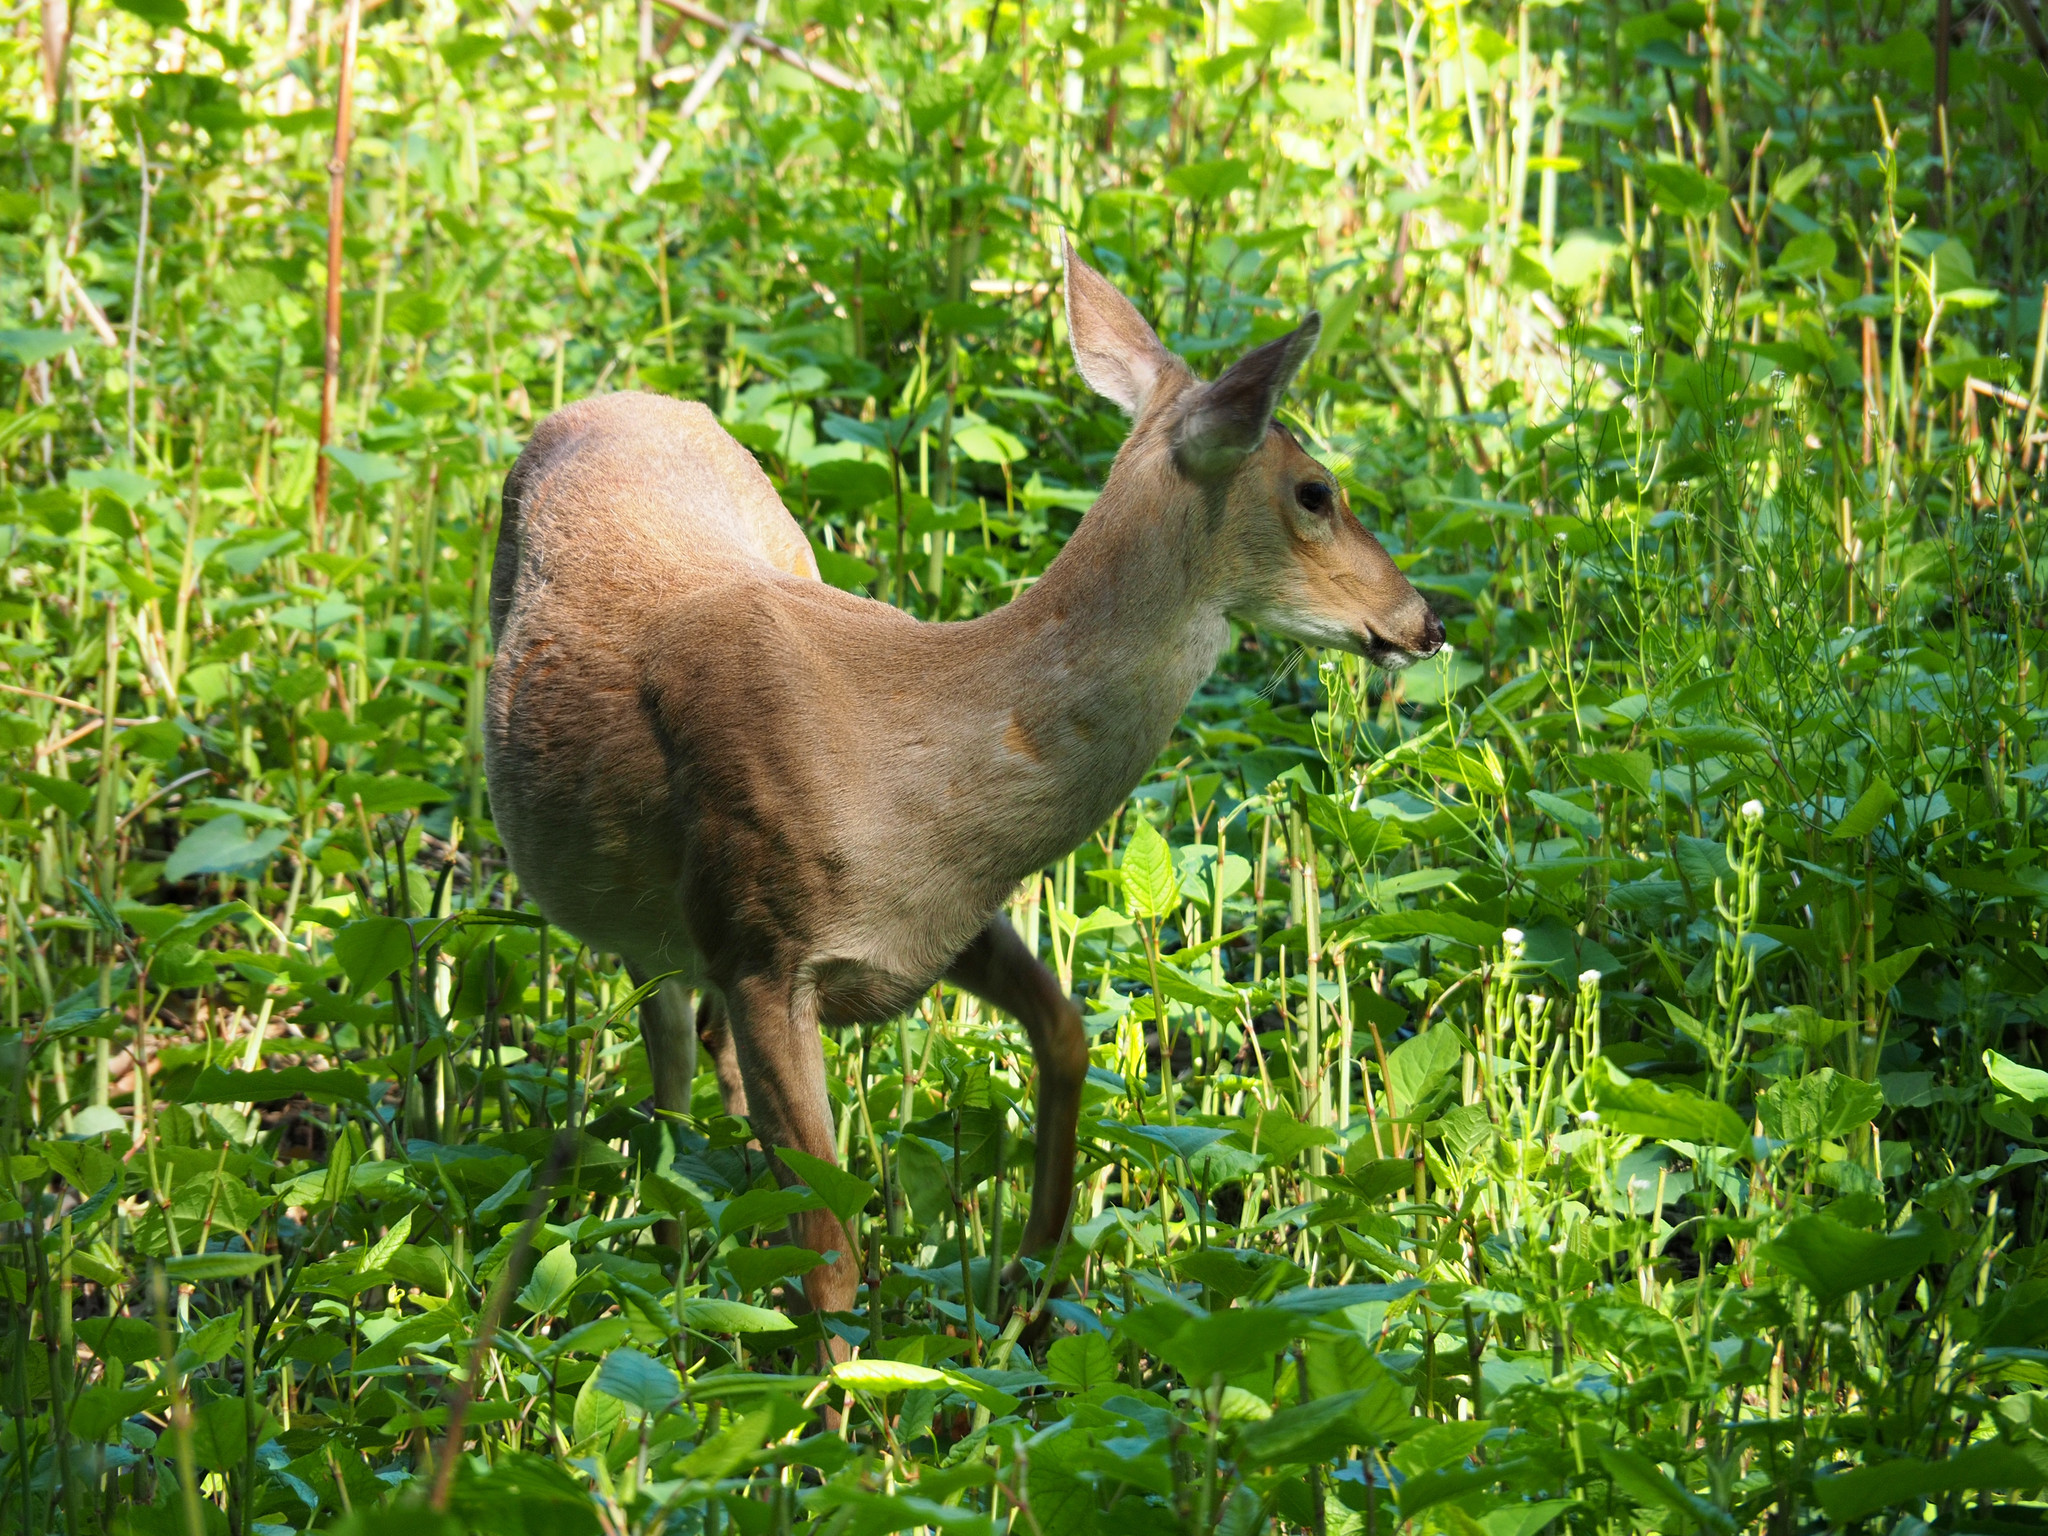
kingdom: Animalia
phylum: Chordata
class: Mammalia
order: Artiodactyla
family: Cervidae
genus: Odocoileus
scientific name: Odocoileus virginianus
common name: White-tailed deer
